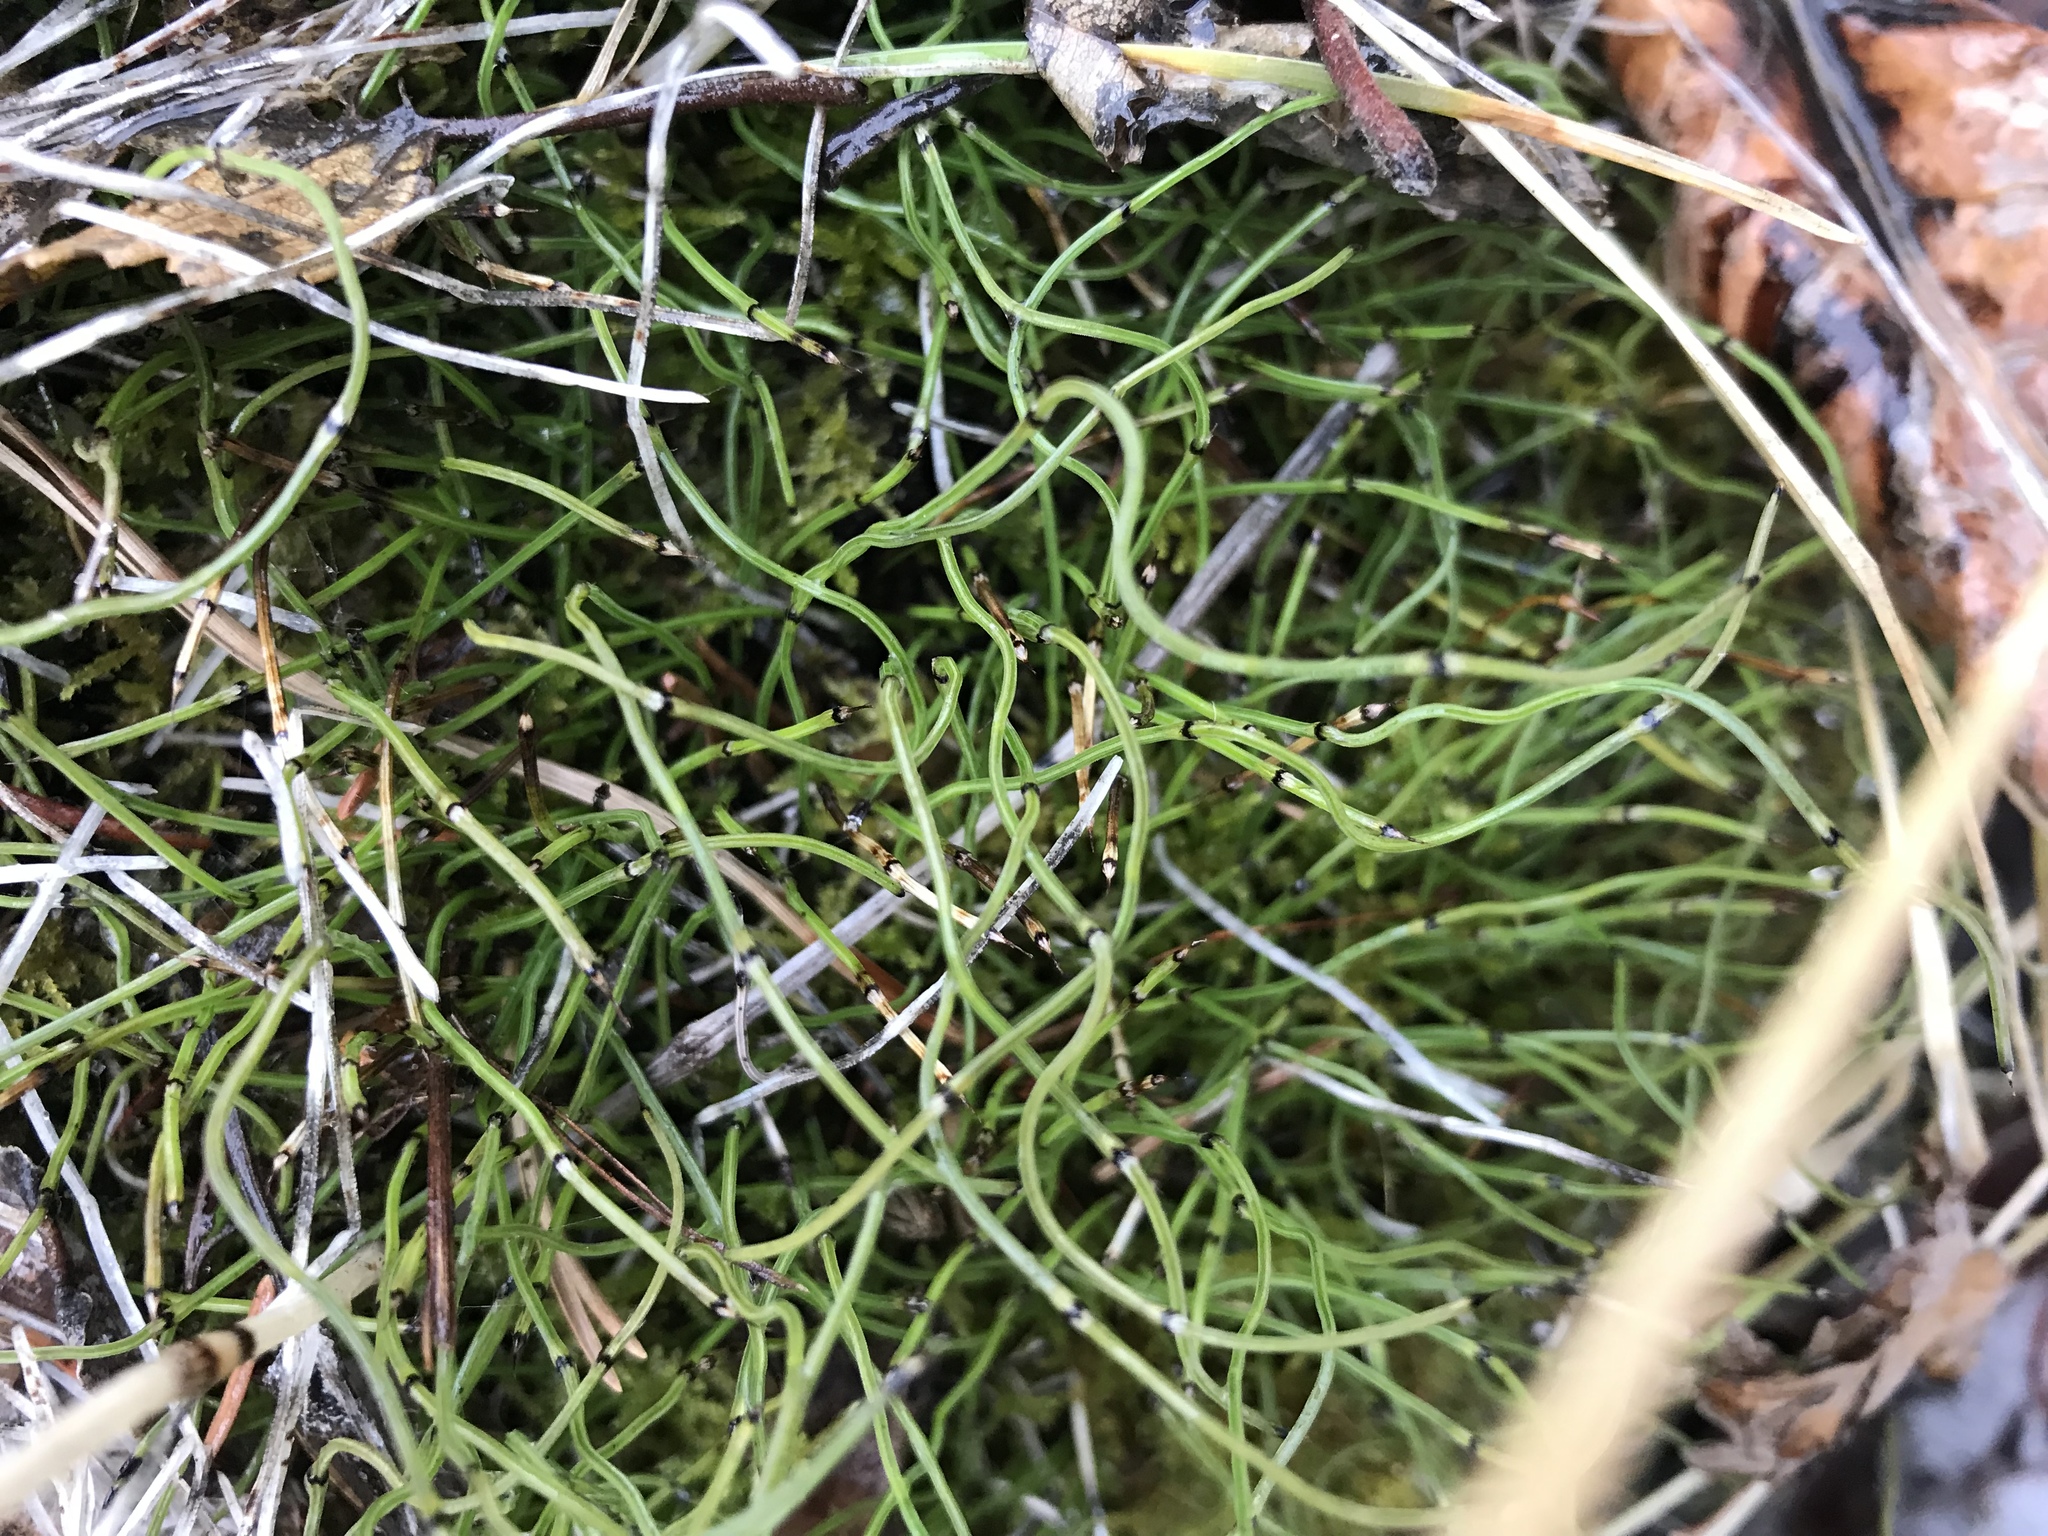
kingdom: Plantae
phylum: Tracheophyta
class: Polypodiopsida
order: Equisetales
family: Equisetaceae
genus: Equisetum
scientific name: Equisetum scirpoides
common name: Delicate horsetail
